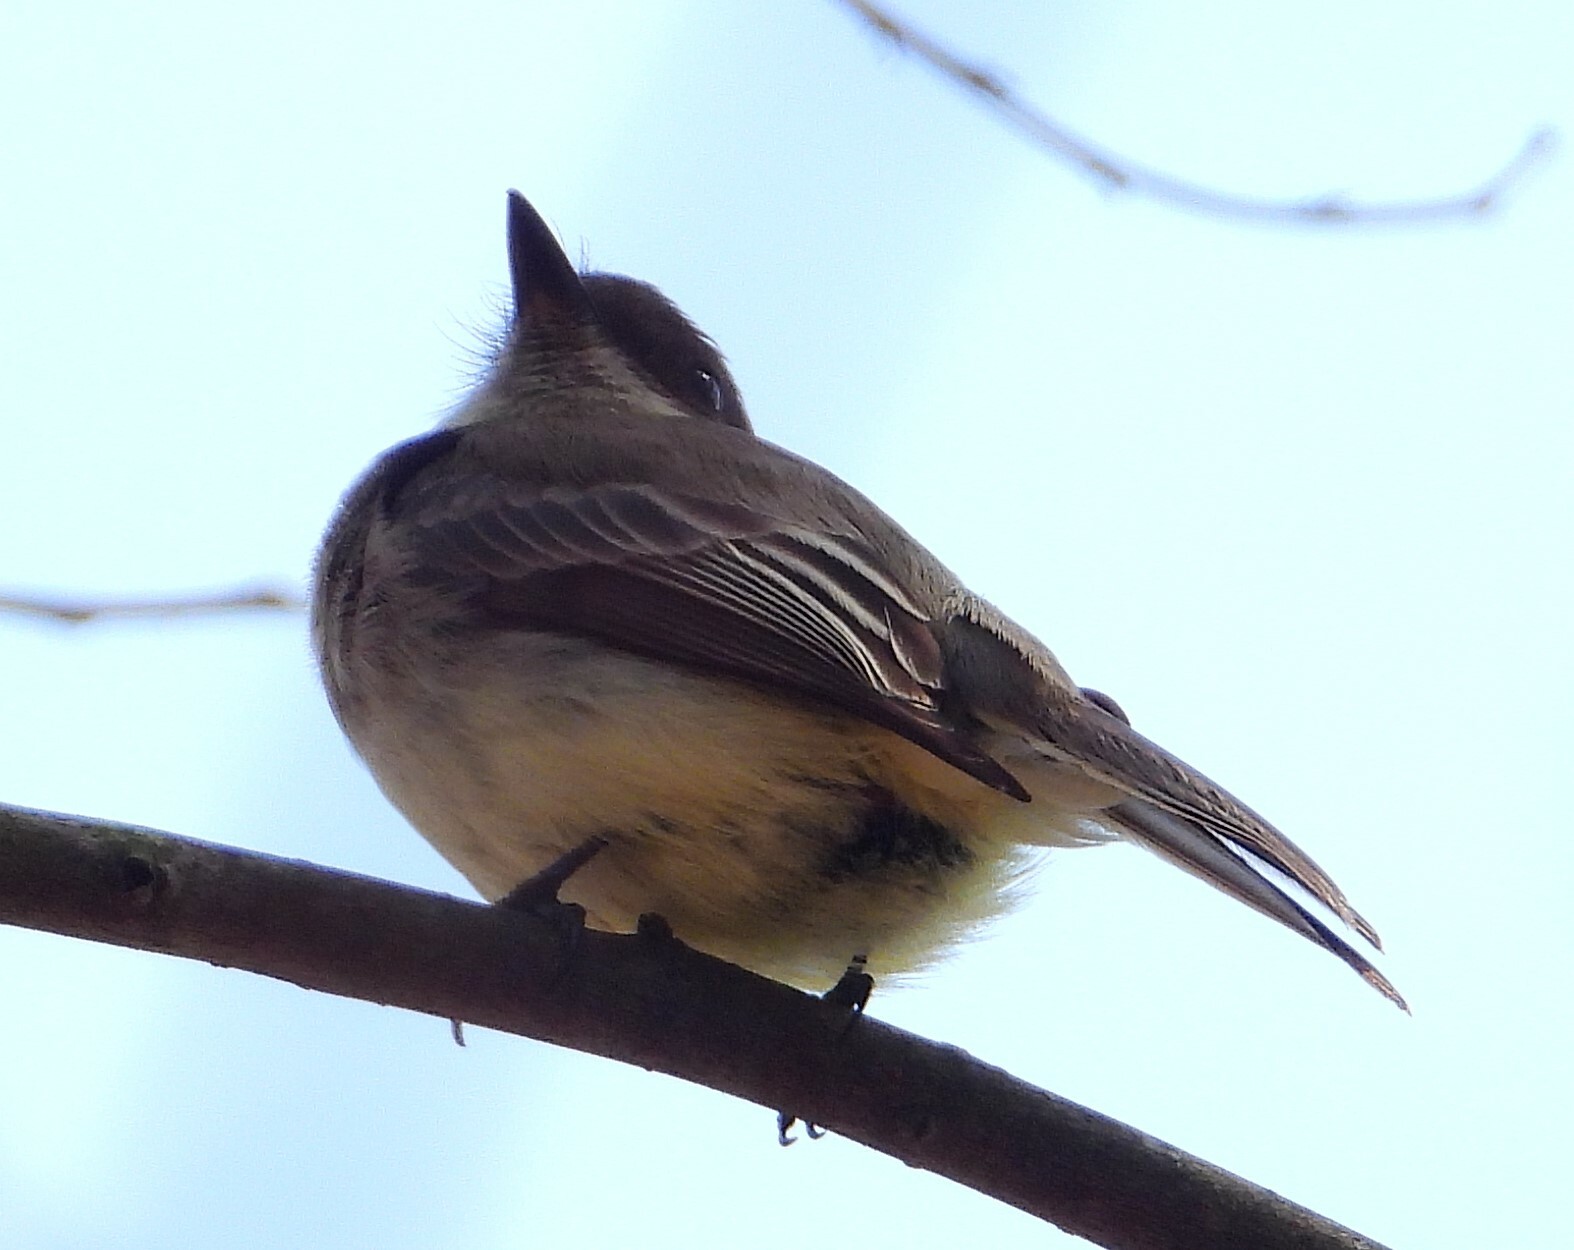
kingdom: Animalia
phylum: Chordata
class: Aves
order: Passeriformes
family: Tyrannidae
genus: Sayornis
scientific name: Sayornis phoebe
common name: Eastern phoebe
